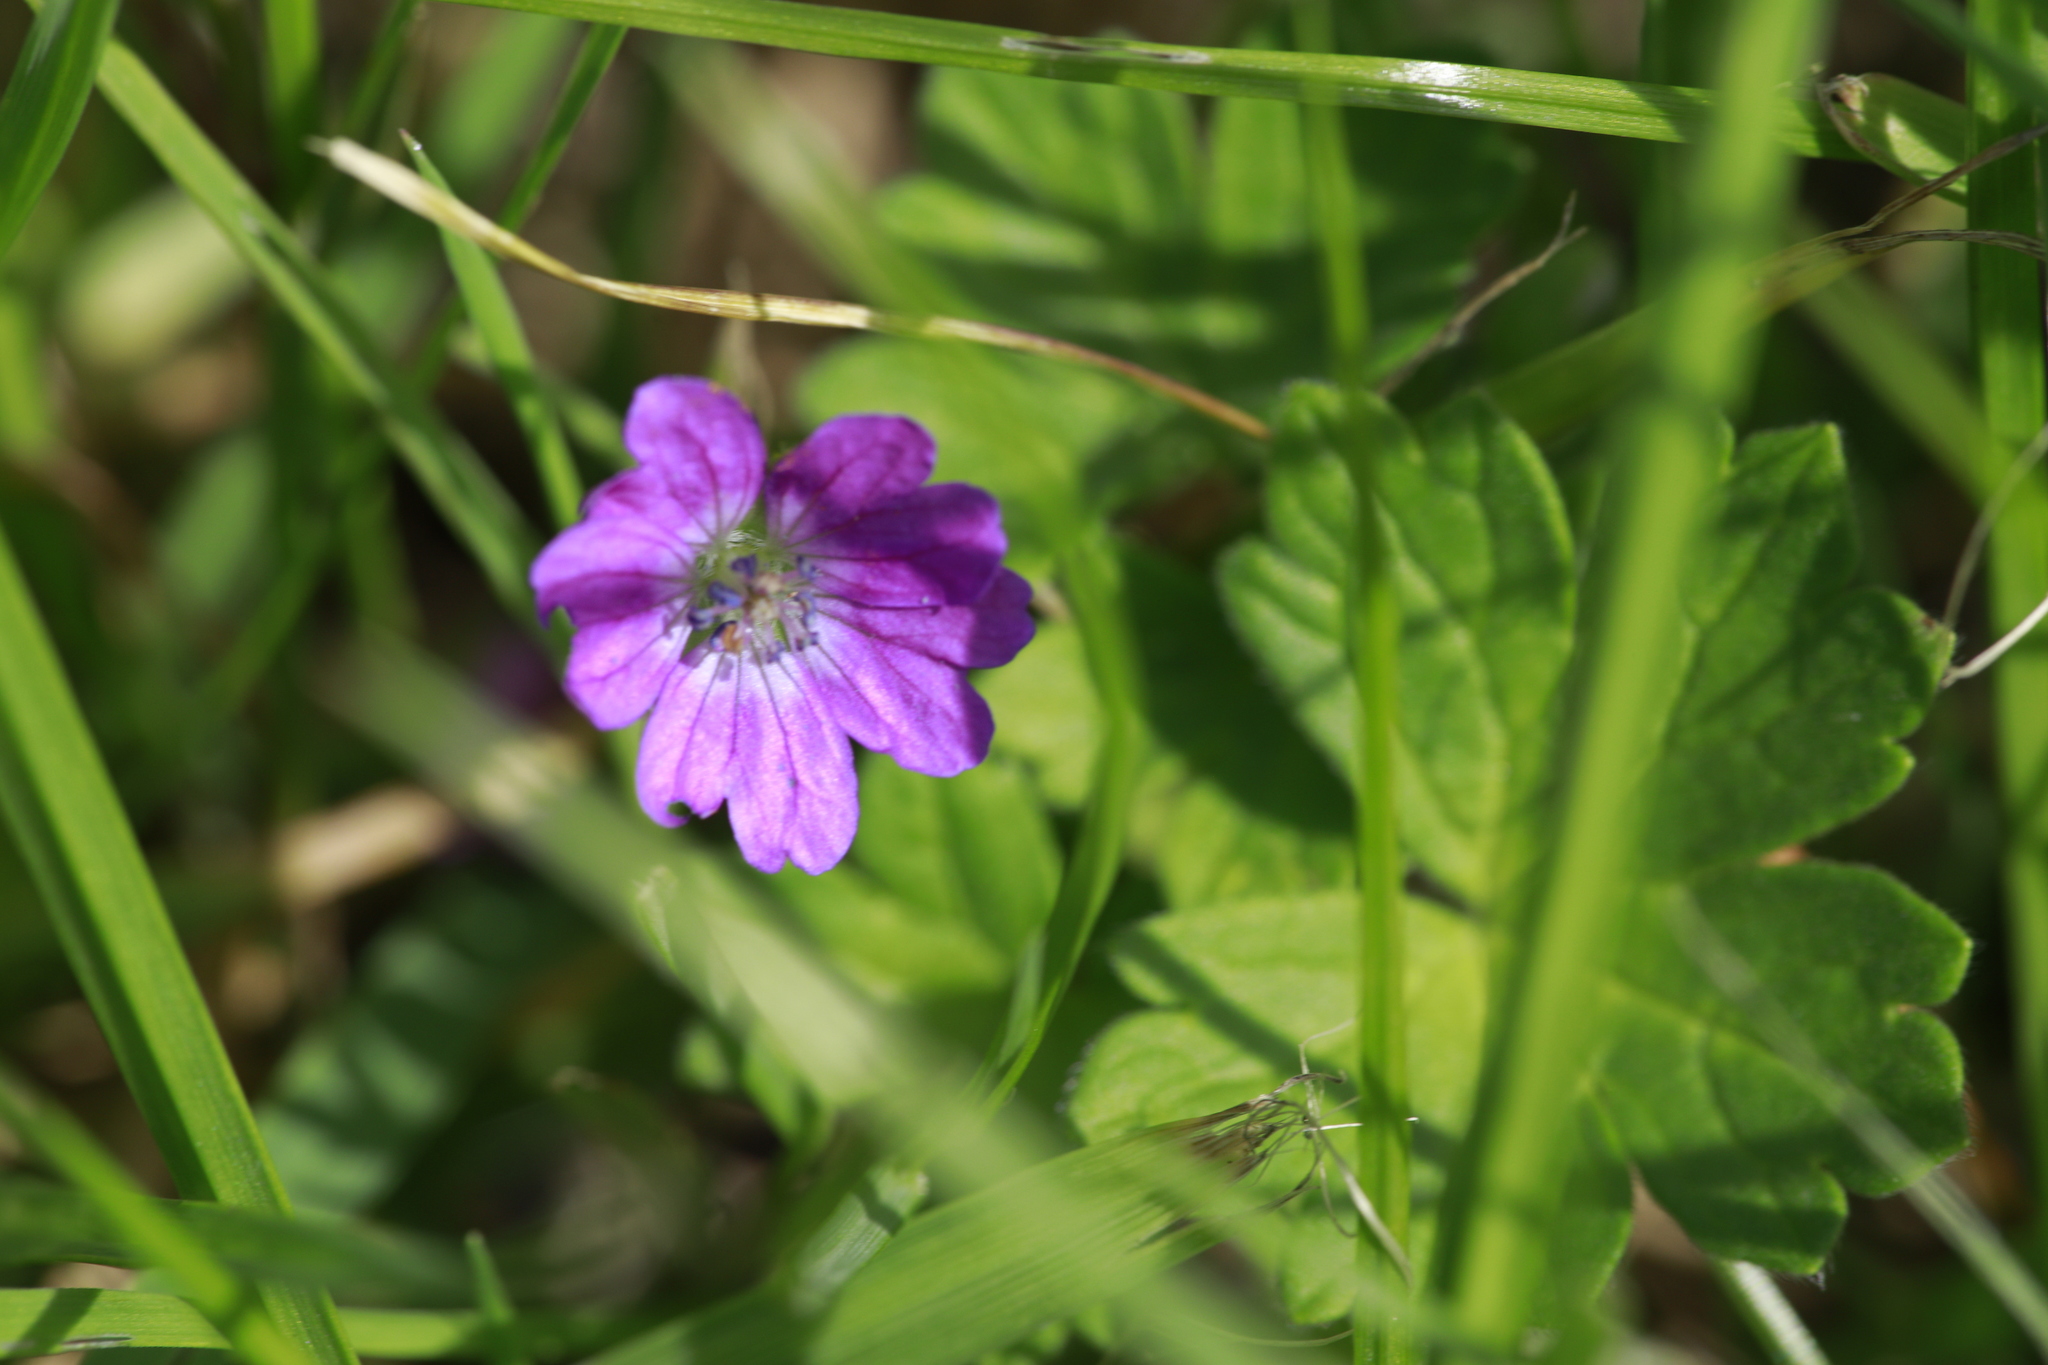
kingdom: Plantae
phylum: Tracheophyta
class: Magnoliopsida
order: Geraniales
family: Geraniaceae
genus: Geranium
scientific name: Geranium pyrenaicum
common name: Hedgerow crane's-bill
